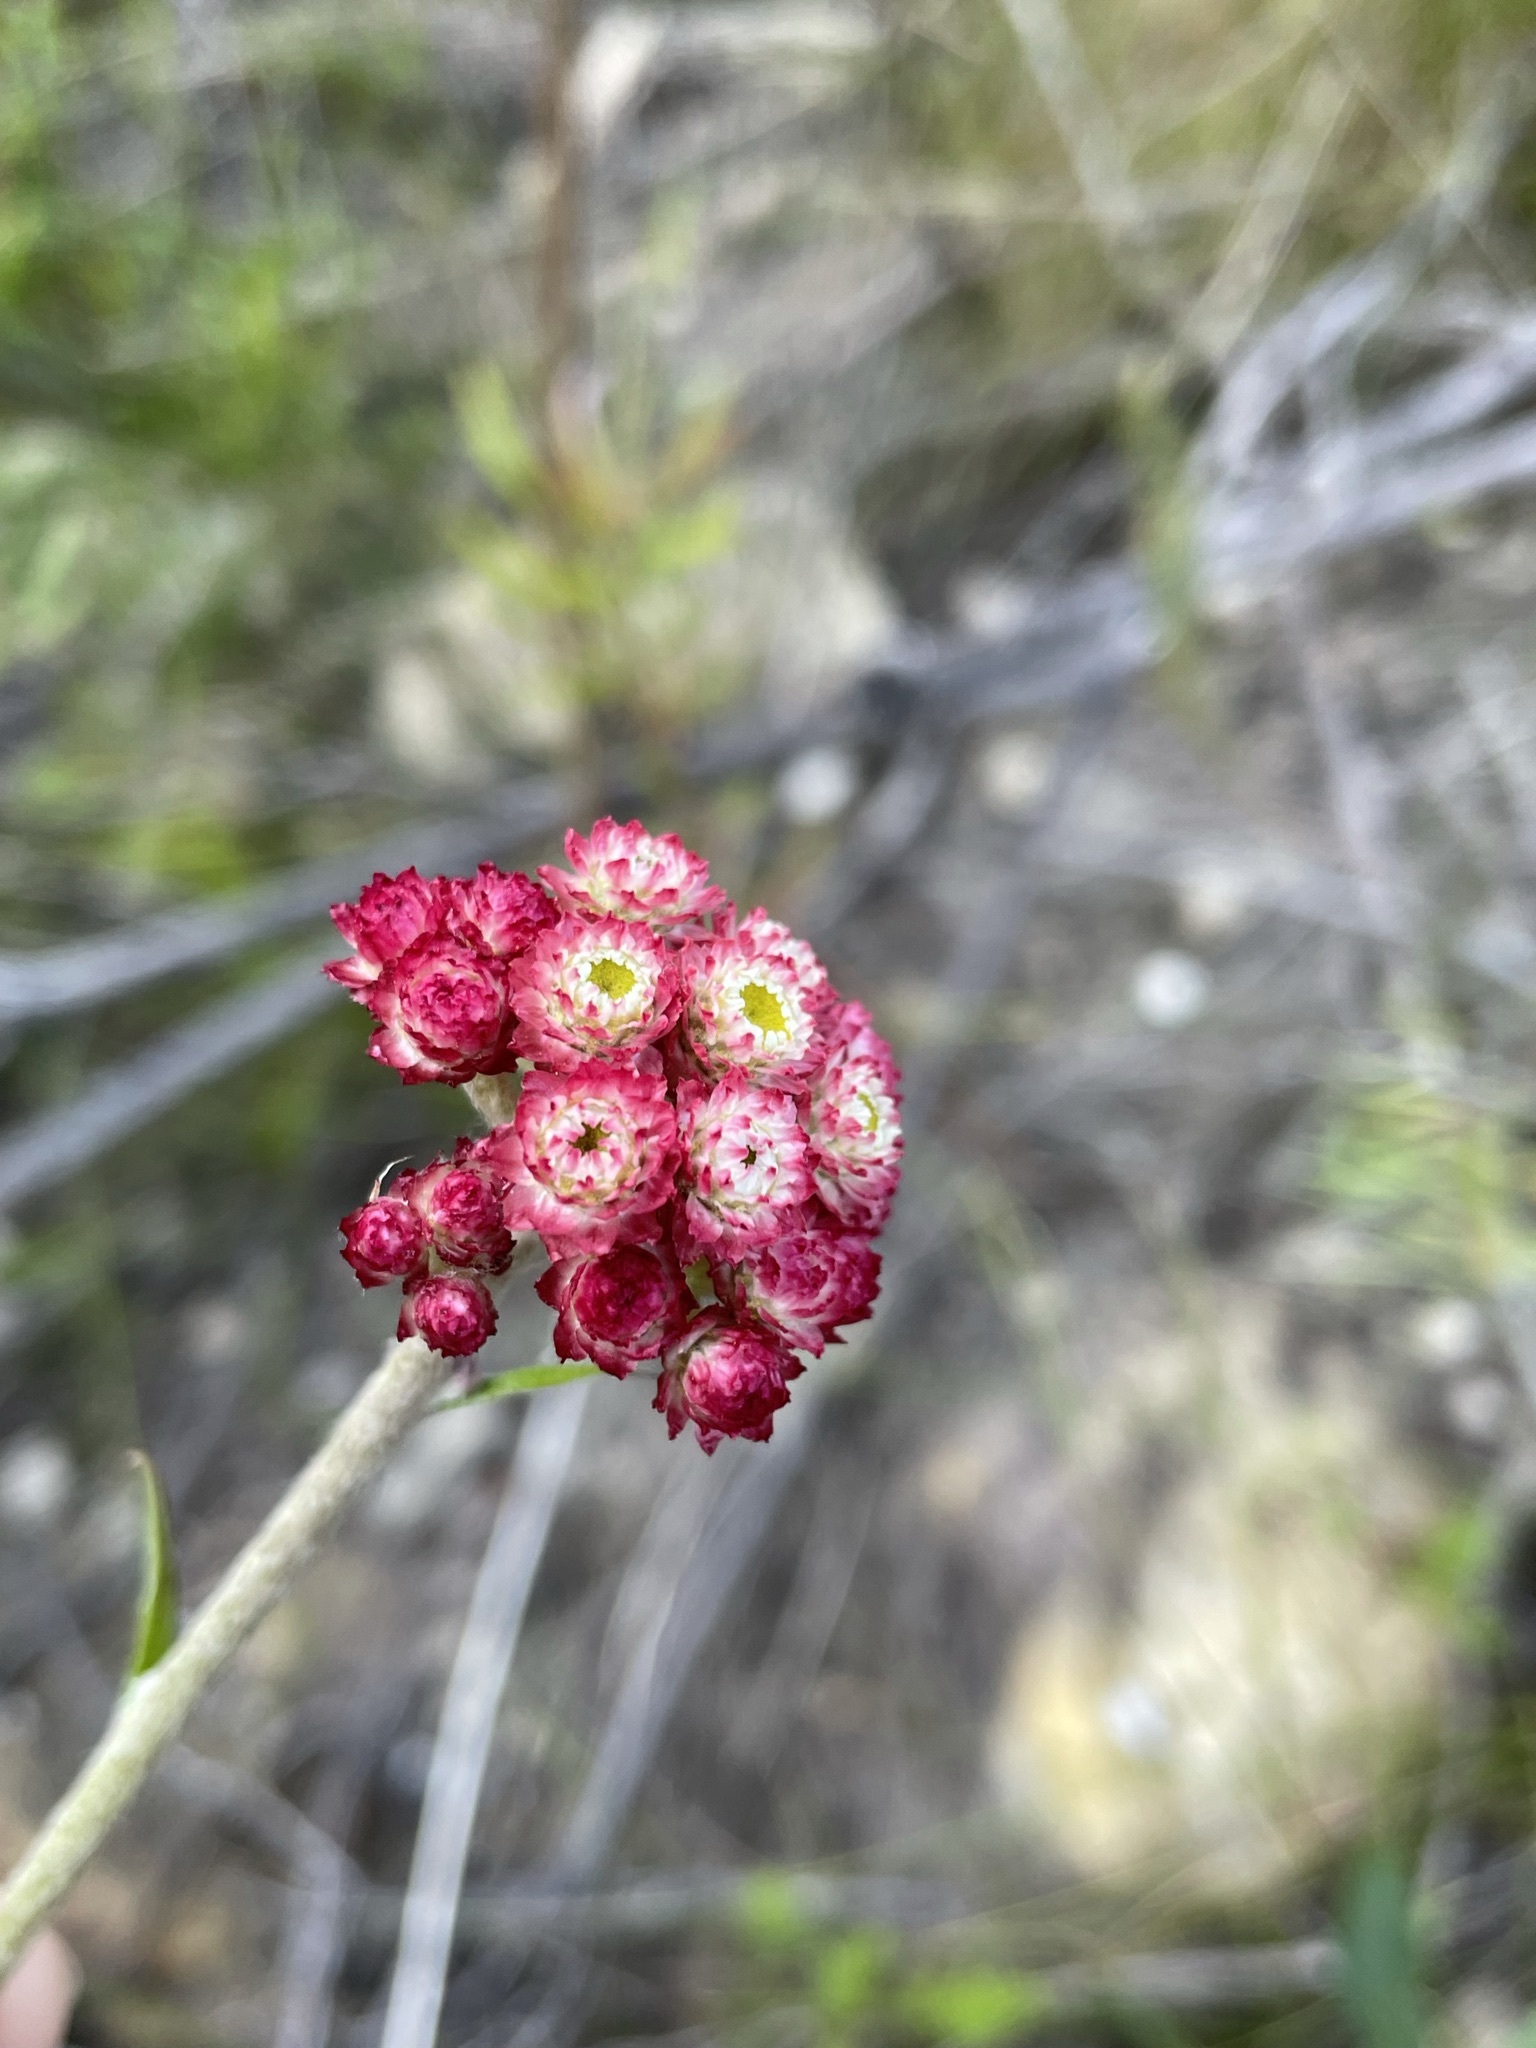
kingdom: Plantae
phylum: Tracheophyta
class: Magnoliopsida
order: Asterales
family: Asteraceae
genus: Helichrysum
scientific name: Helichrysum felinum
